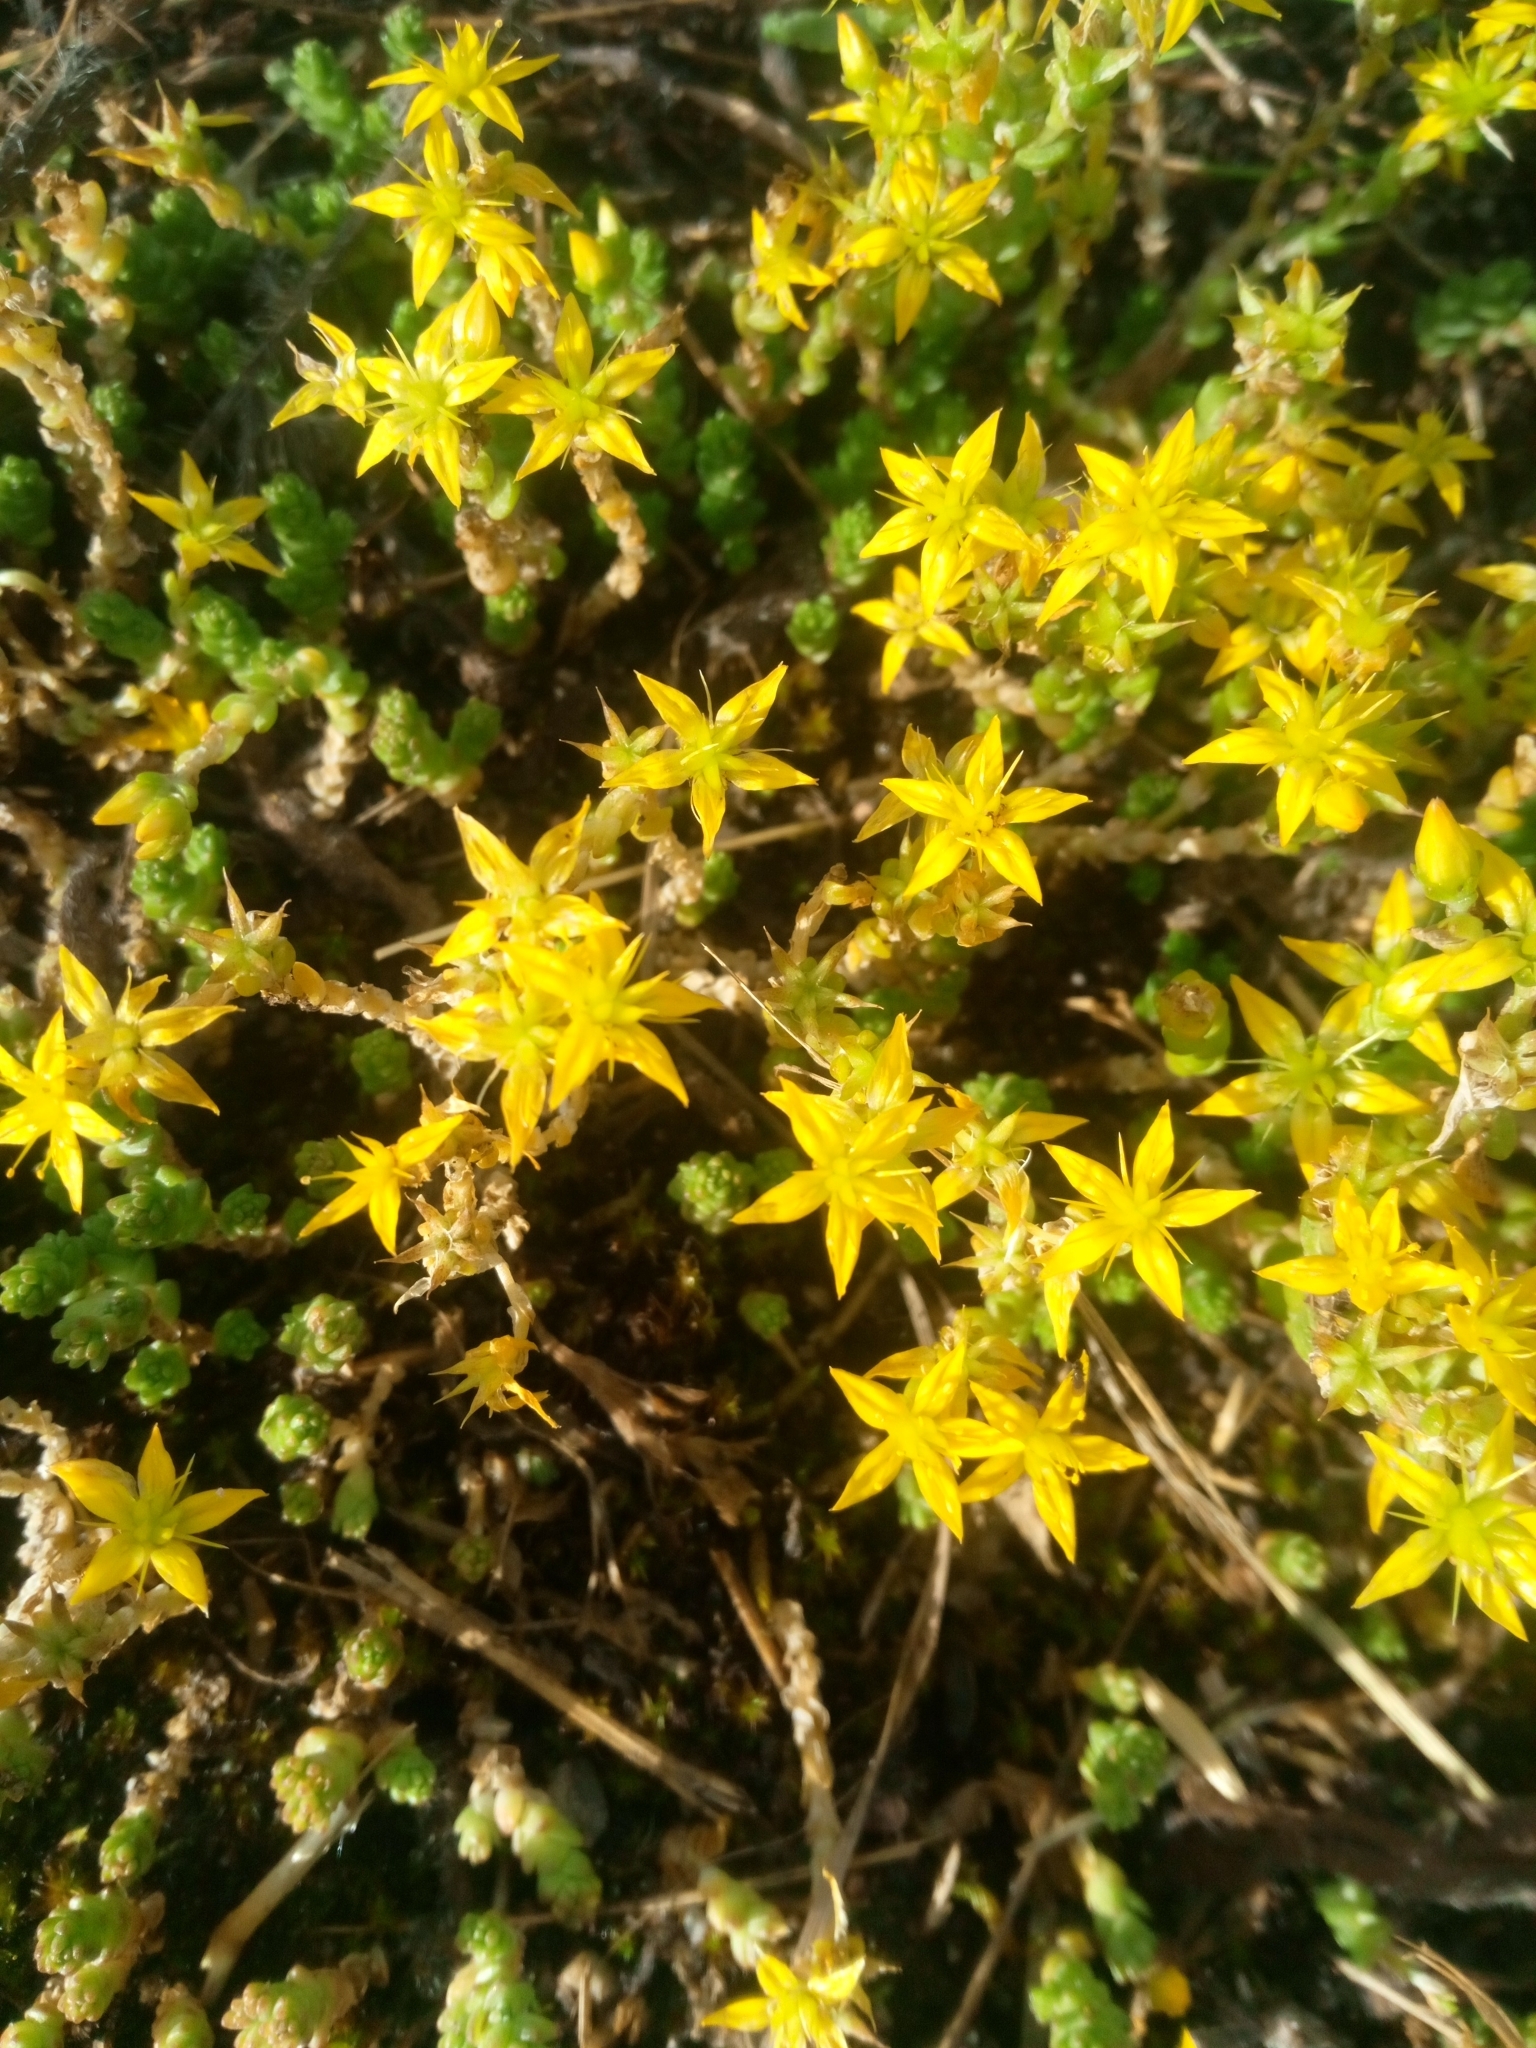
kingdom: Plantae
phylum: Tracheophyta
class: Magnoliopsida
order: Saxifragales
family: Crassulaceae
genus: Sedum
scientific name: Sedum acre
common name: Biting stonecrop
